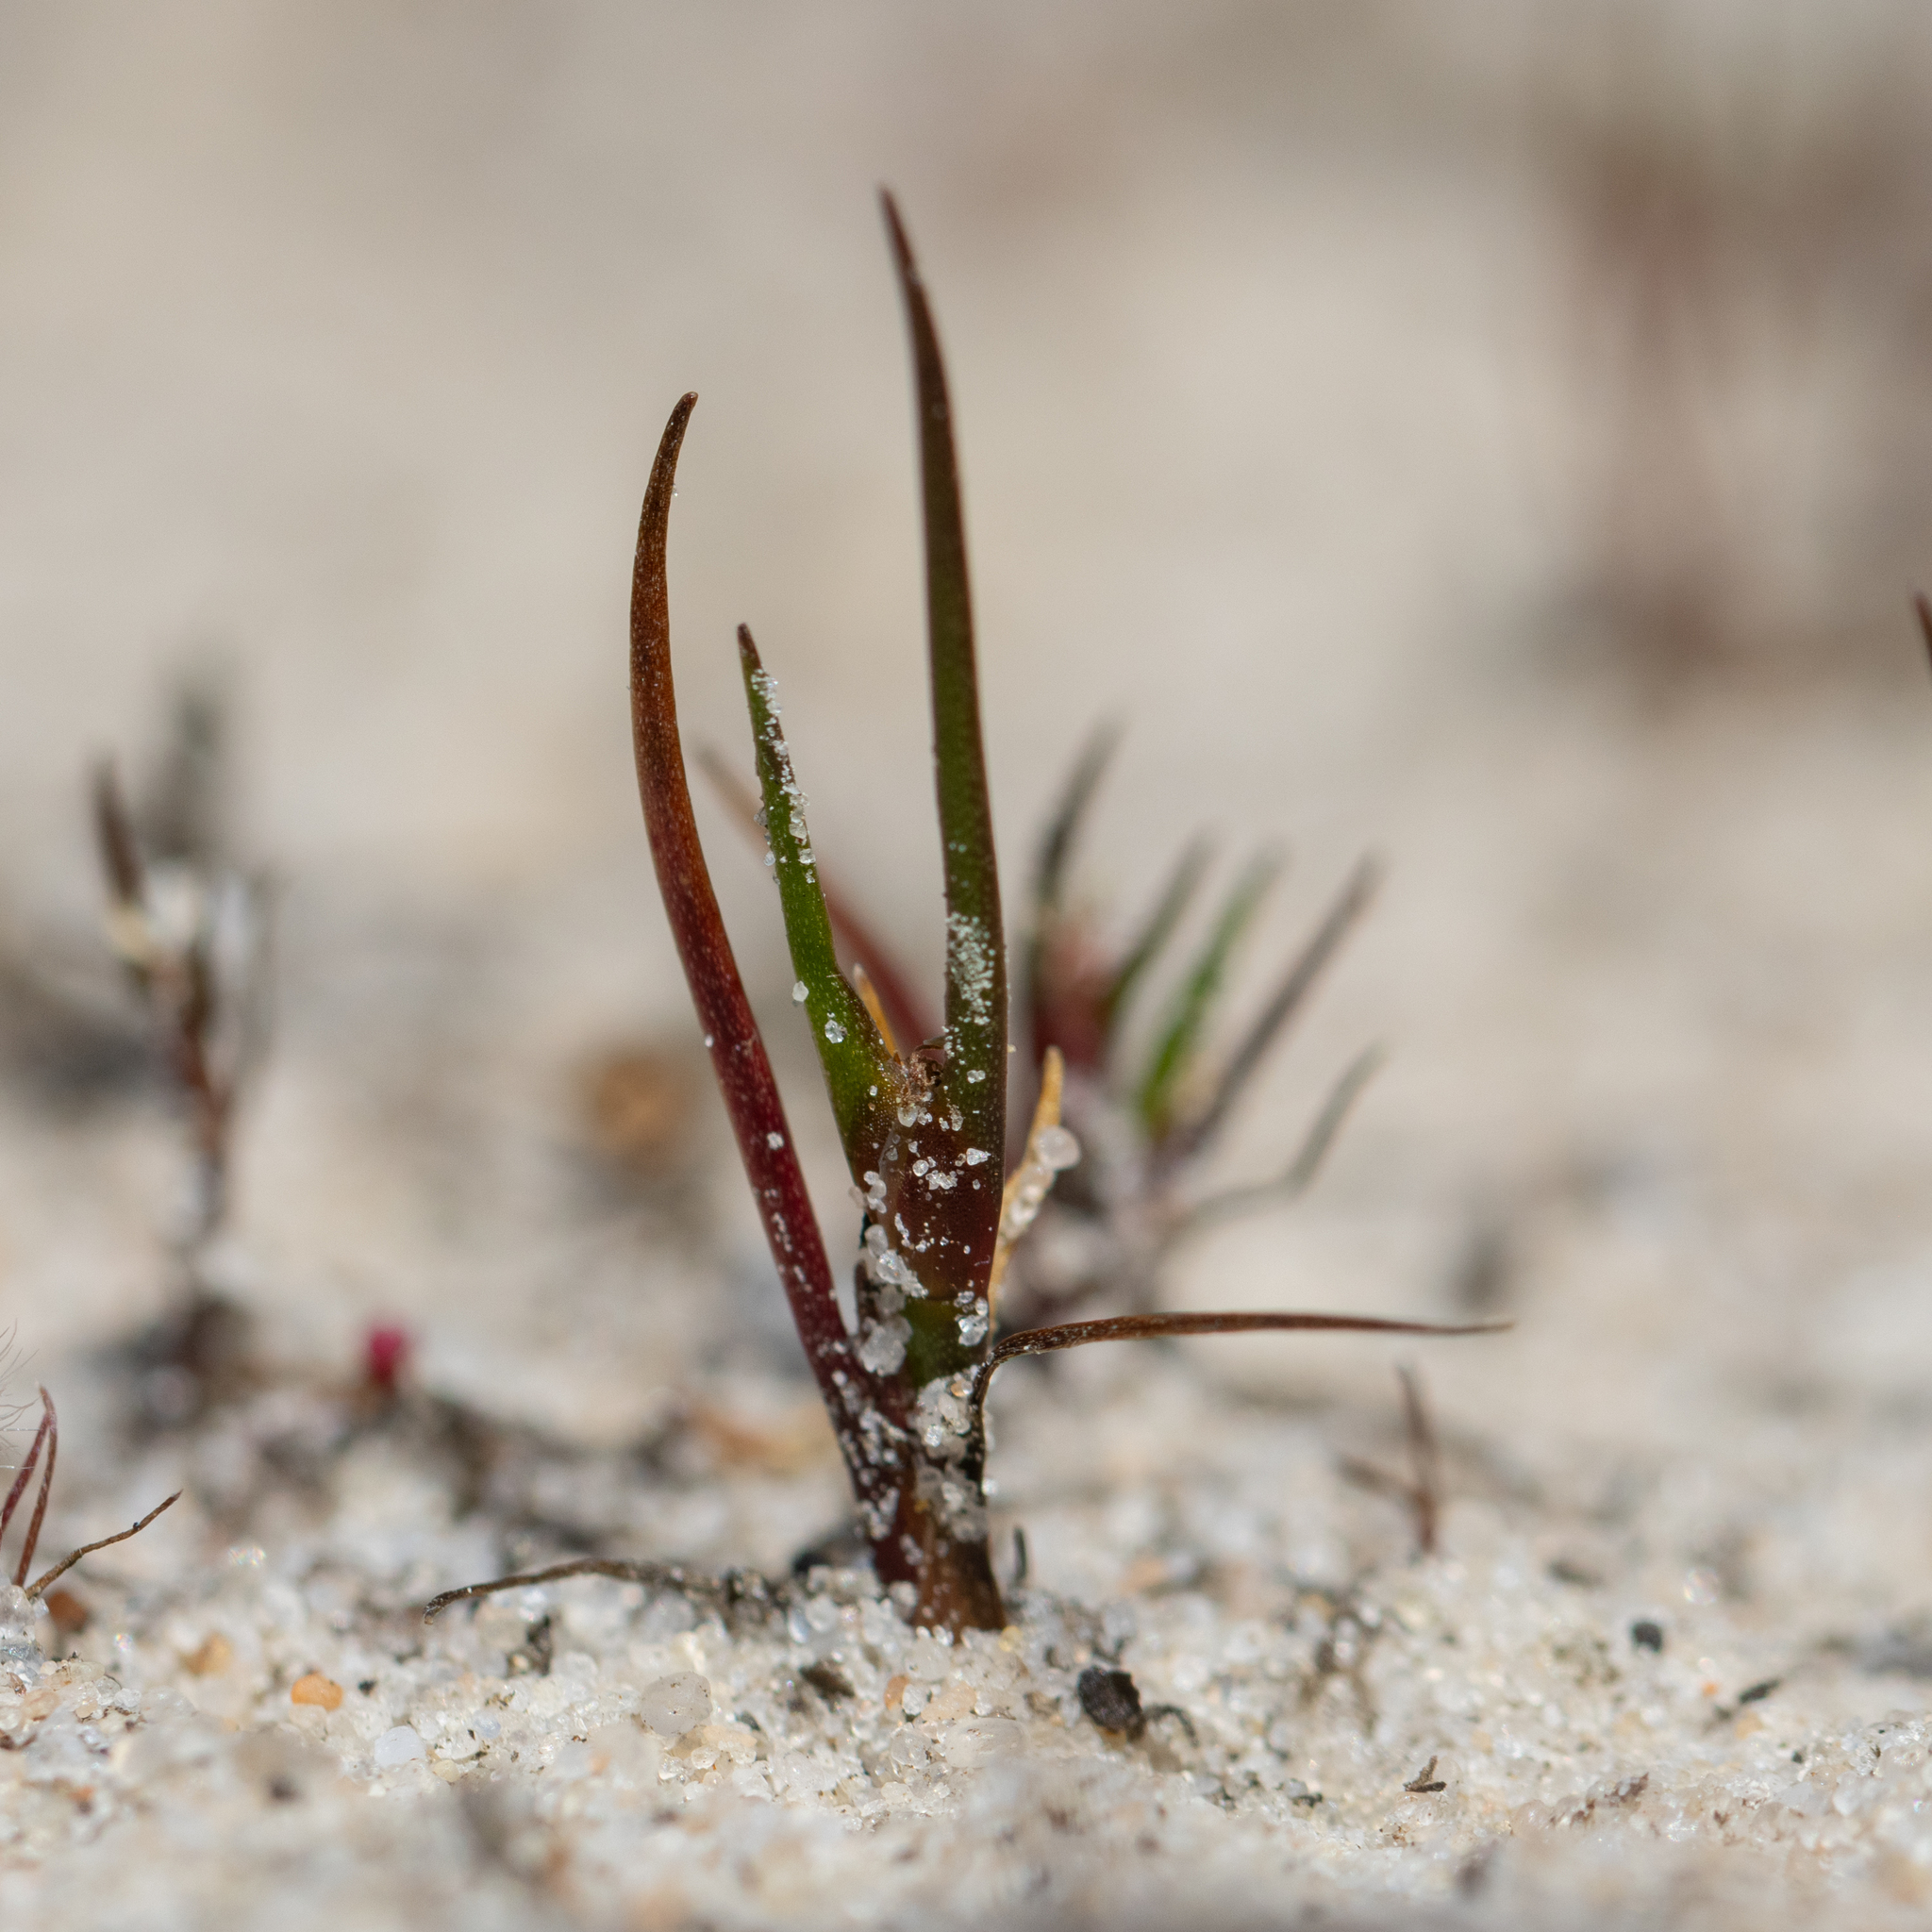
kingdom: Plantae
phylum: Tracheophyta
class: Liliopsida
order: Poales
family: Restionaceae
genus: Centrolepis
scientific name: Centrolepis aristata
